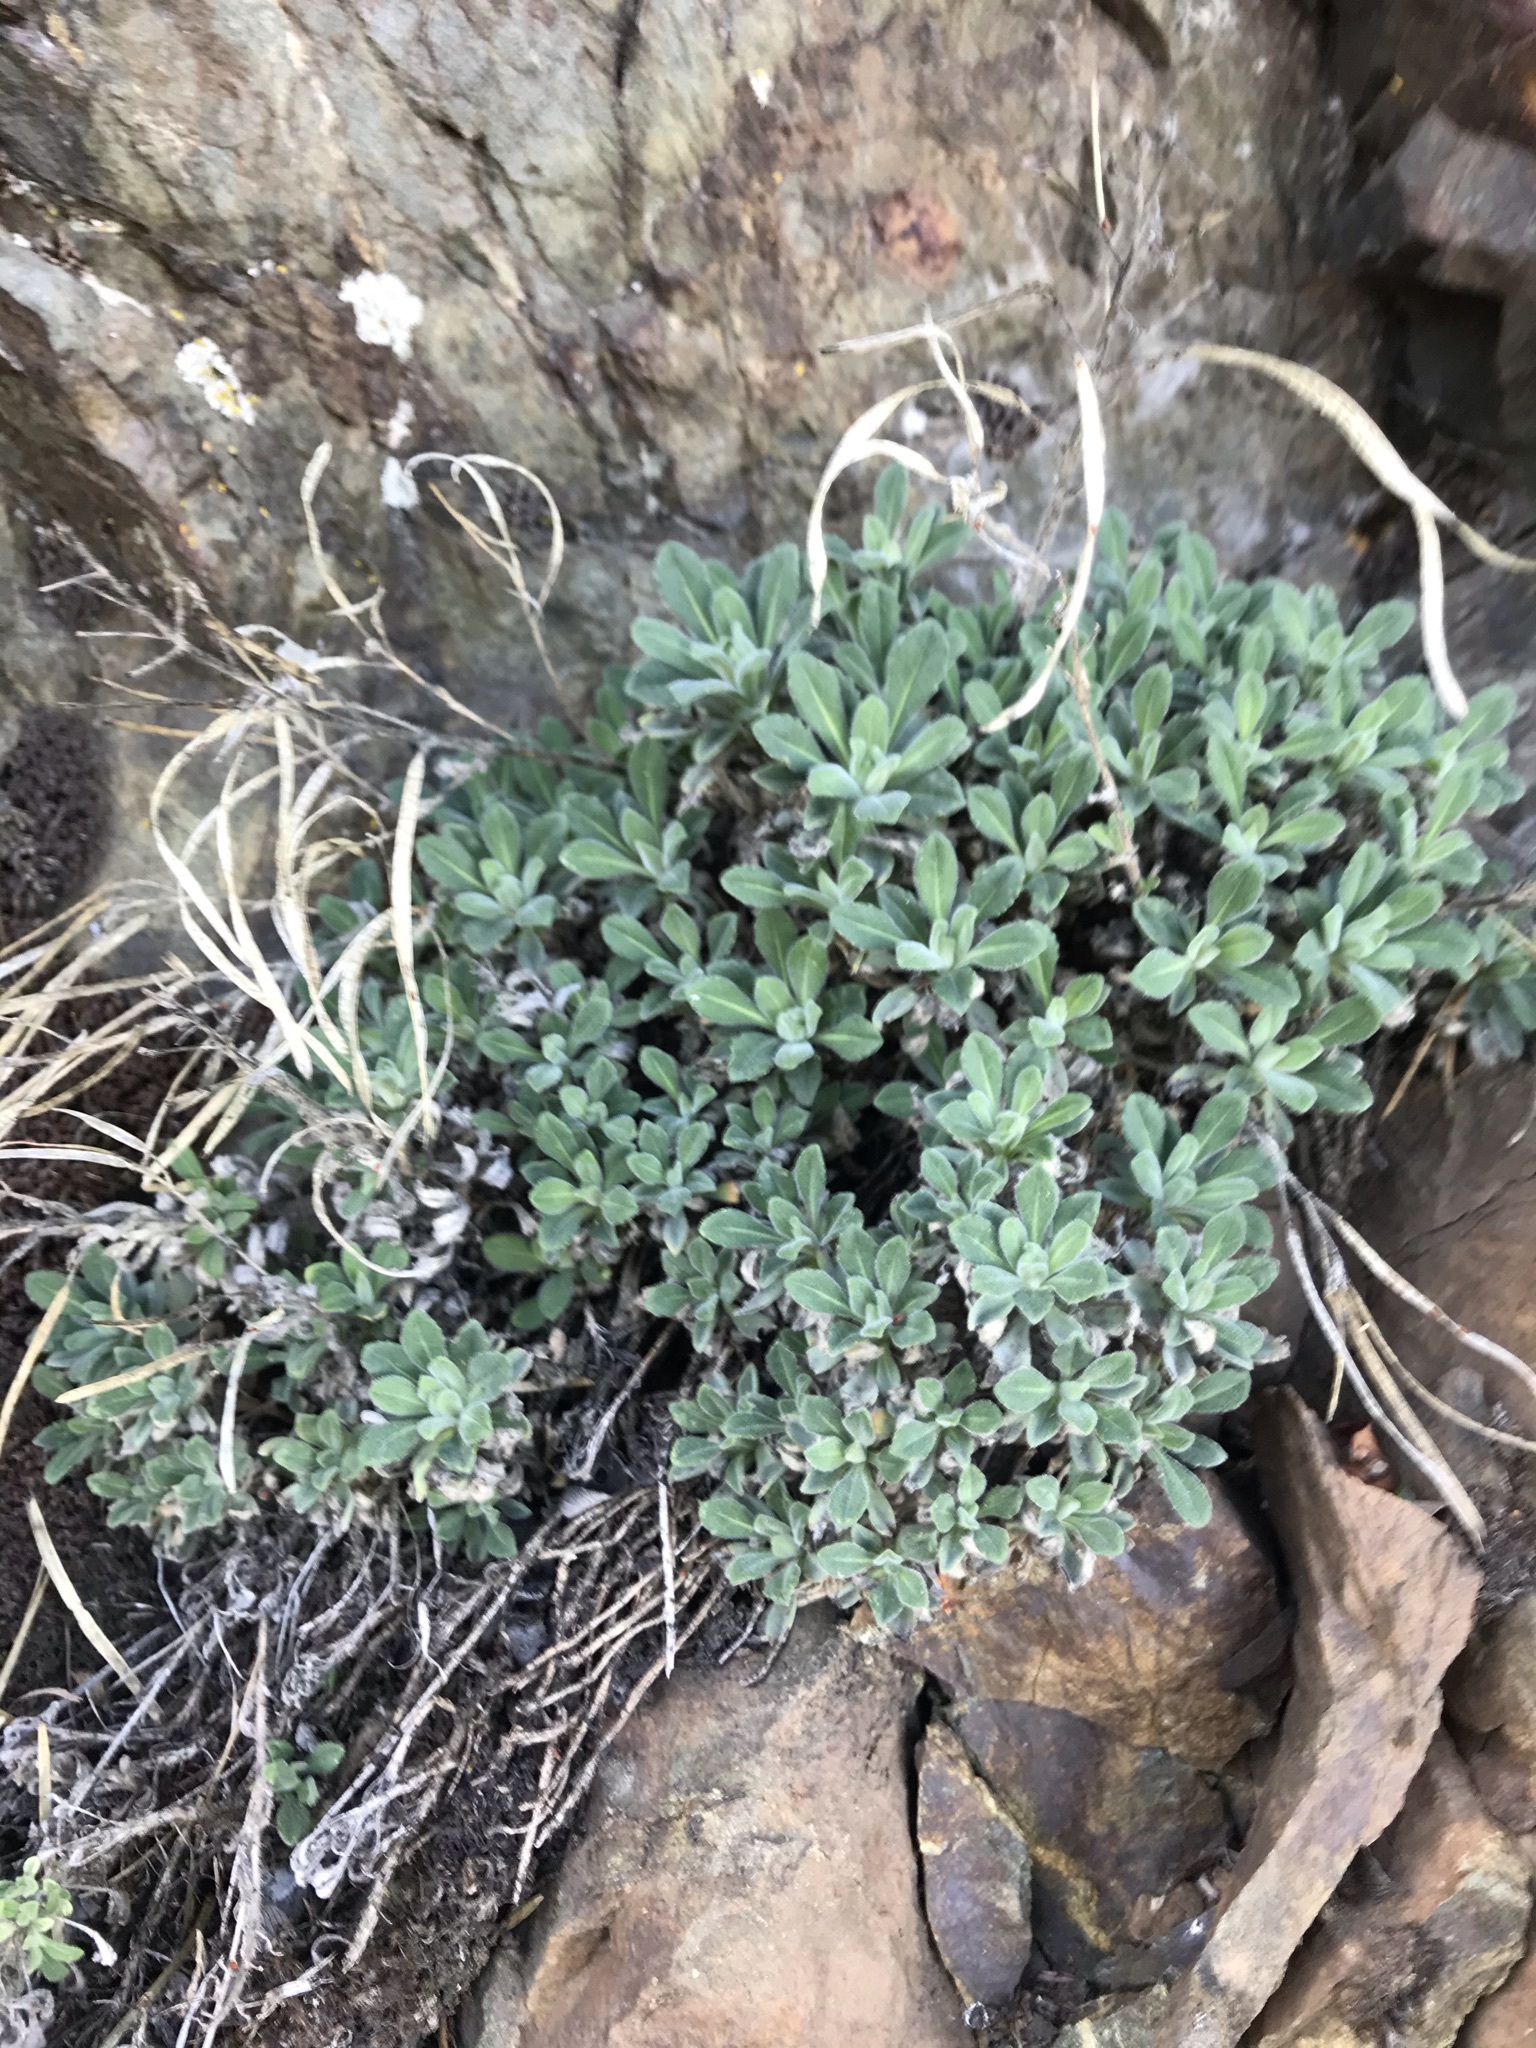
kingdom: Plantae
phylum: Tracheophyta
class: Magnoliopsida
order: Brassicales
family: Brassicaceae
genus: Boechera
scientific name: Boechera breweri
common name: Brewer's rockcress
